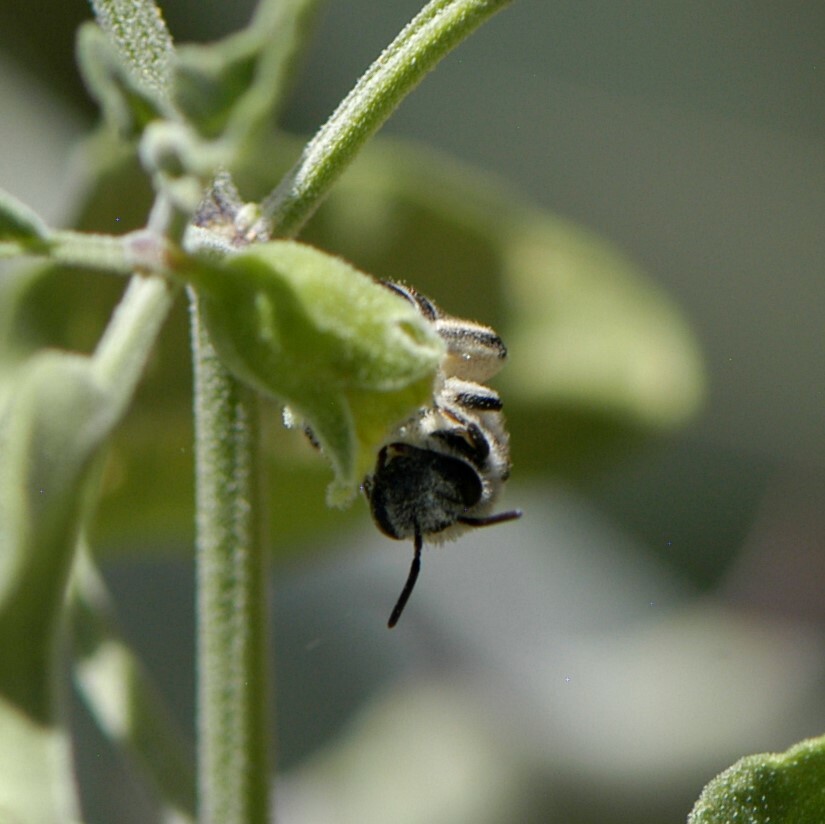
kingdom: Animalia
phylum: Arthropoda
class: Insecta
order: Hymenoptera
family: Colletidae
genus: Colletes
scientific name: Colletes
